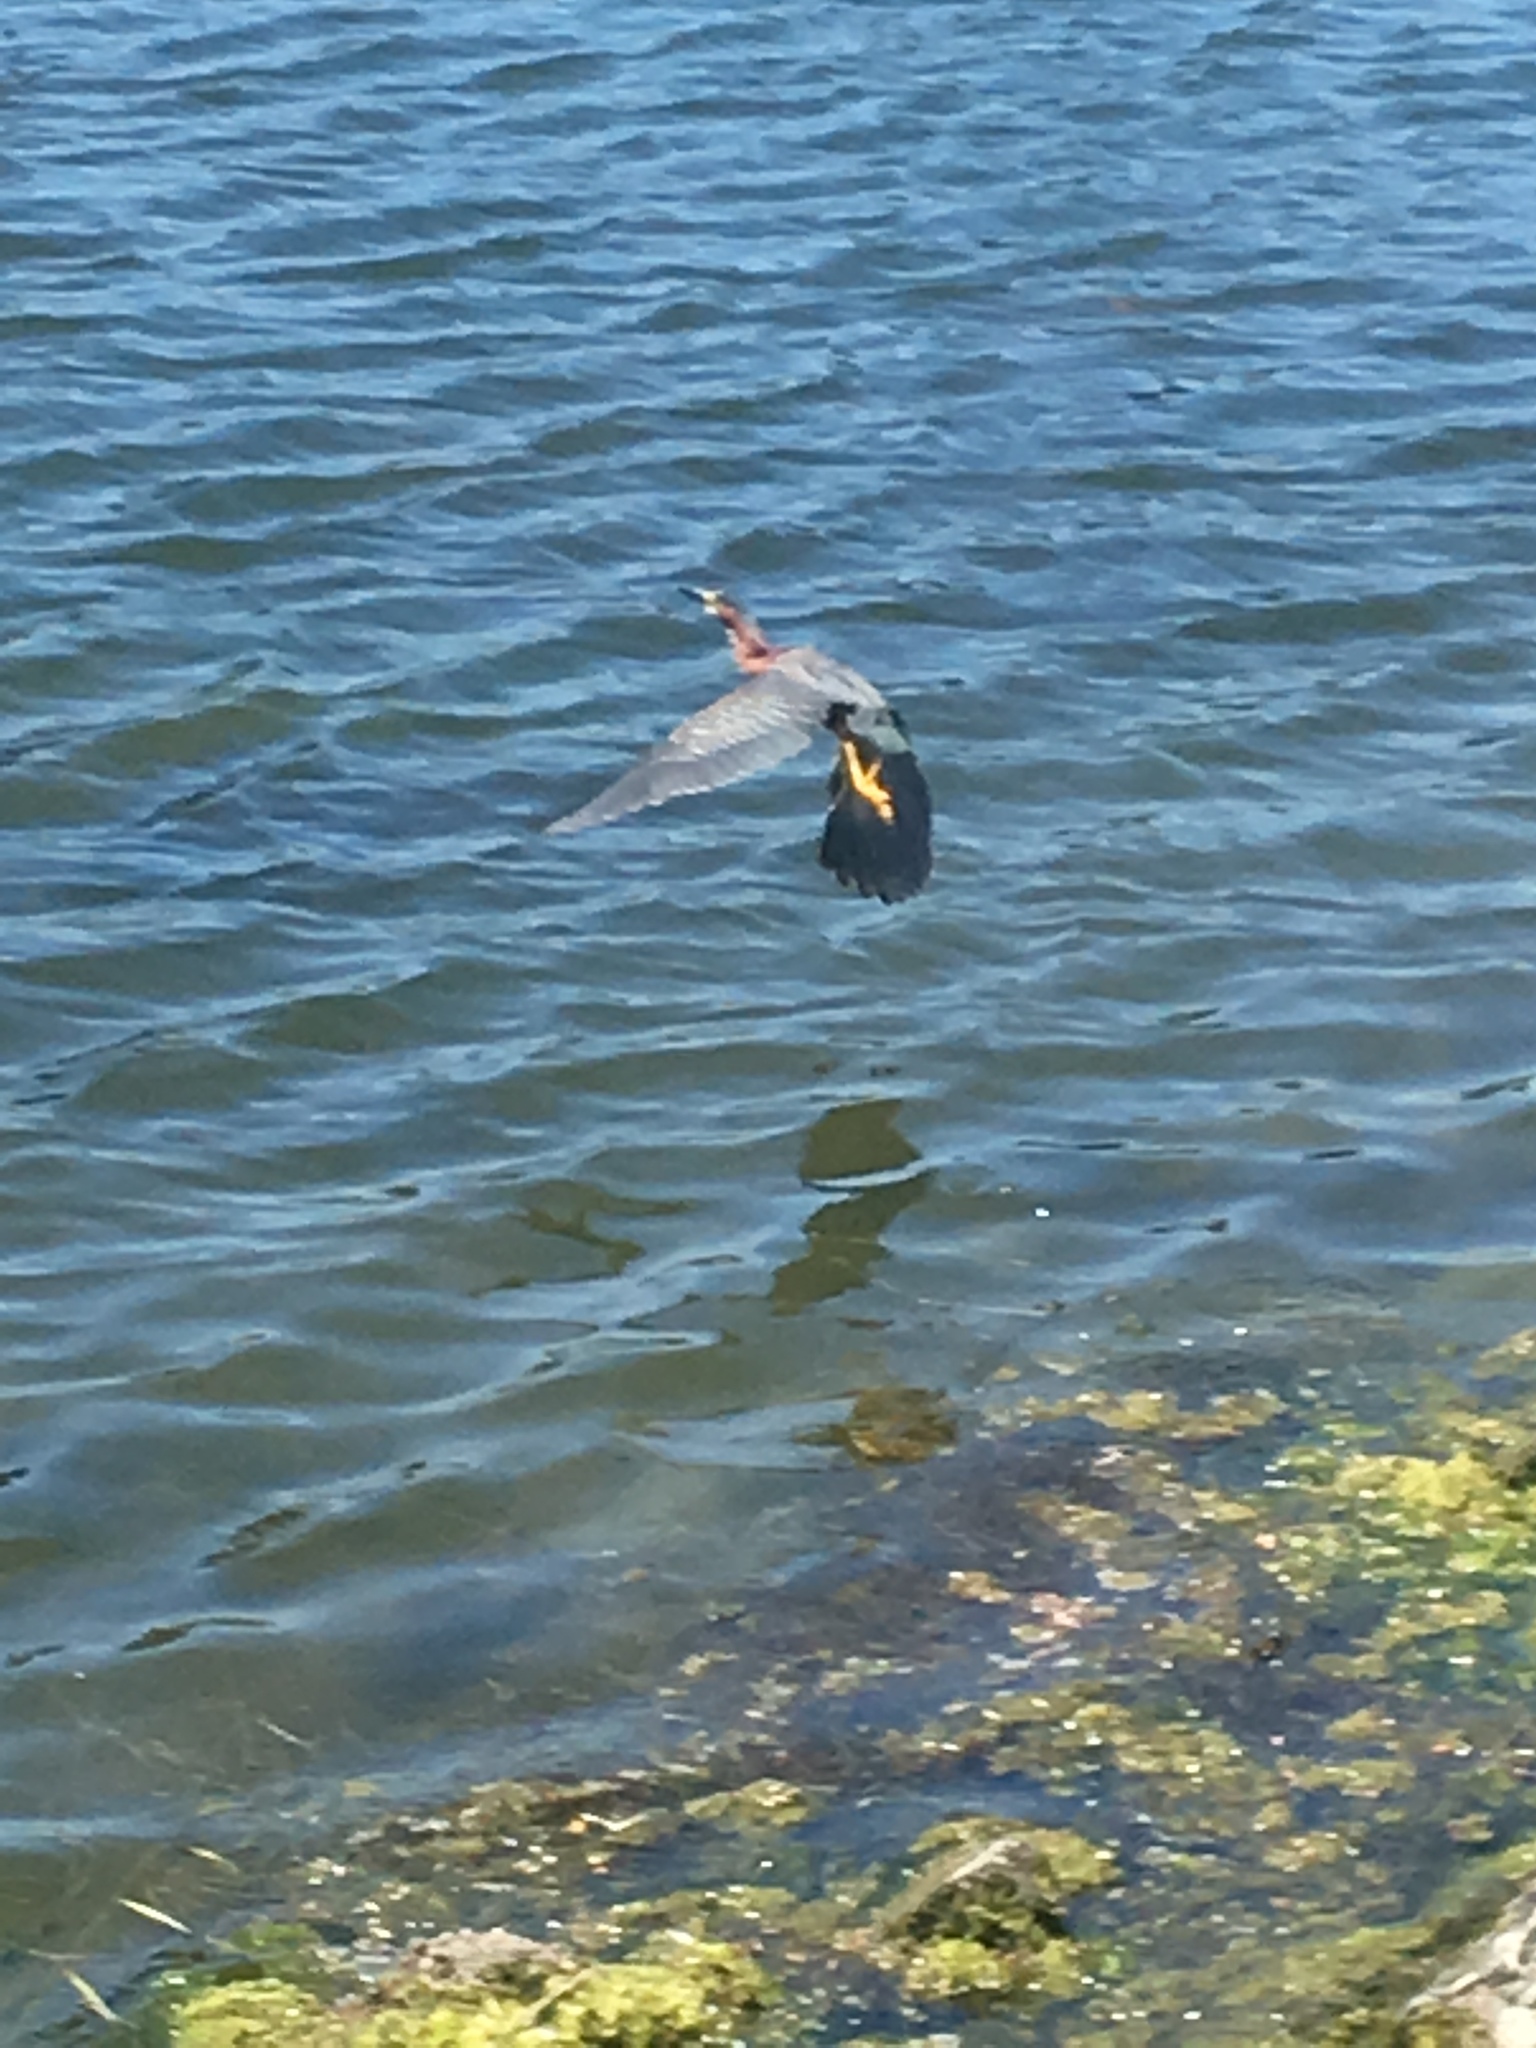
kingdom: Animalia
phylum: Chordata
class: Aves
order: Pelecaniformes
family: Ardeidae
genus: Butorides
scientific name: Butorides virescens
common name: Green heron
